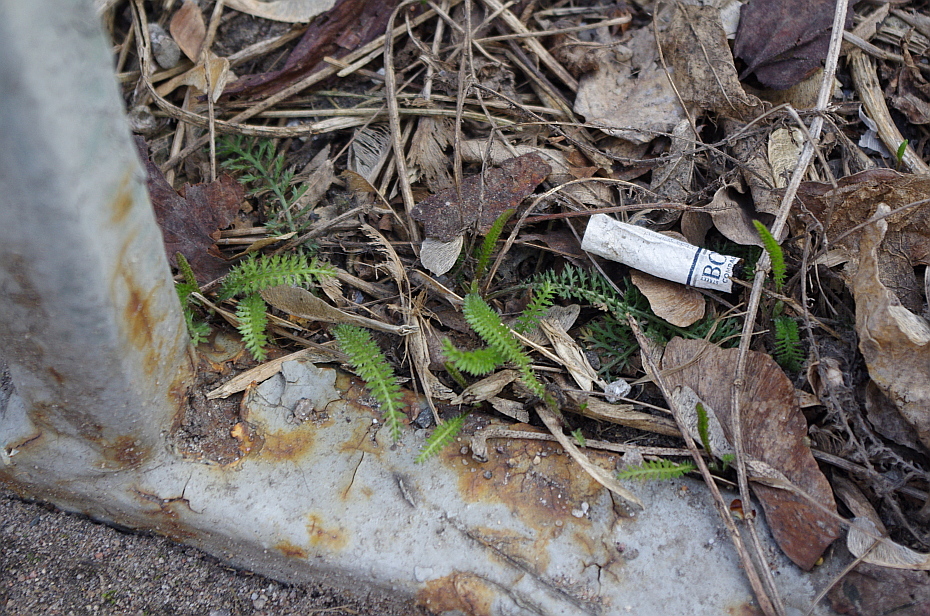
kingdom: Plantae
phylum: Tracheophyta
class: Magnoliopsida
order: Asterales
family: Asteraceae
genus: Achillea
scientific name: Achillea millefolium
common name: Yarrow
